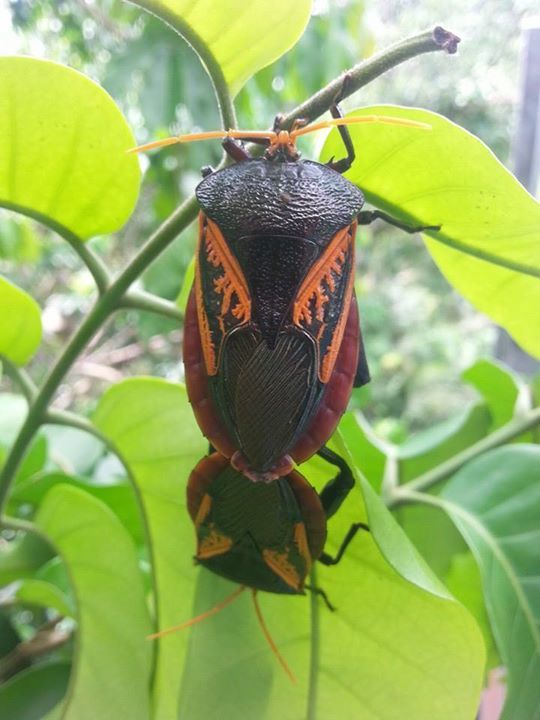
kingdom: Animalia
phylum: Arthropoda
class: Insecta
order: Hemiptera
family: Tessaratomidae
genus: Oncomeris
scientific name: Oncomeris flavicornis
